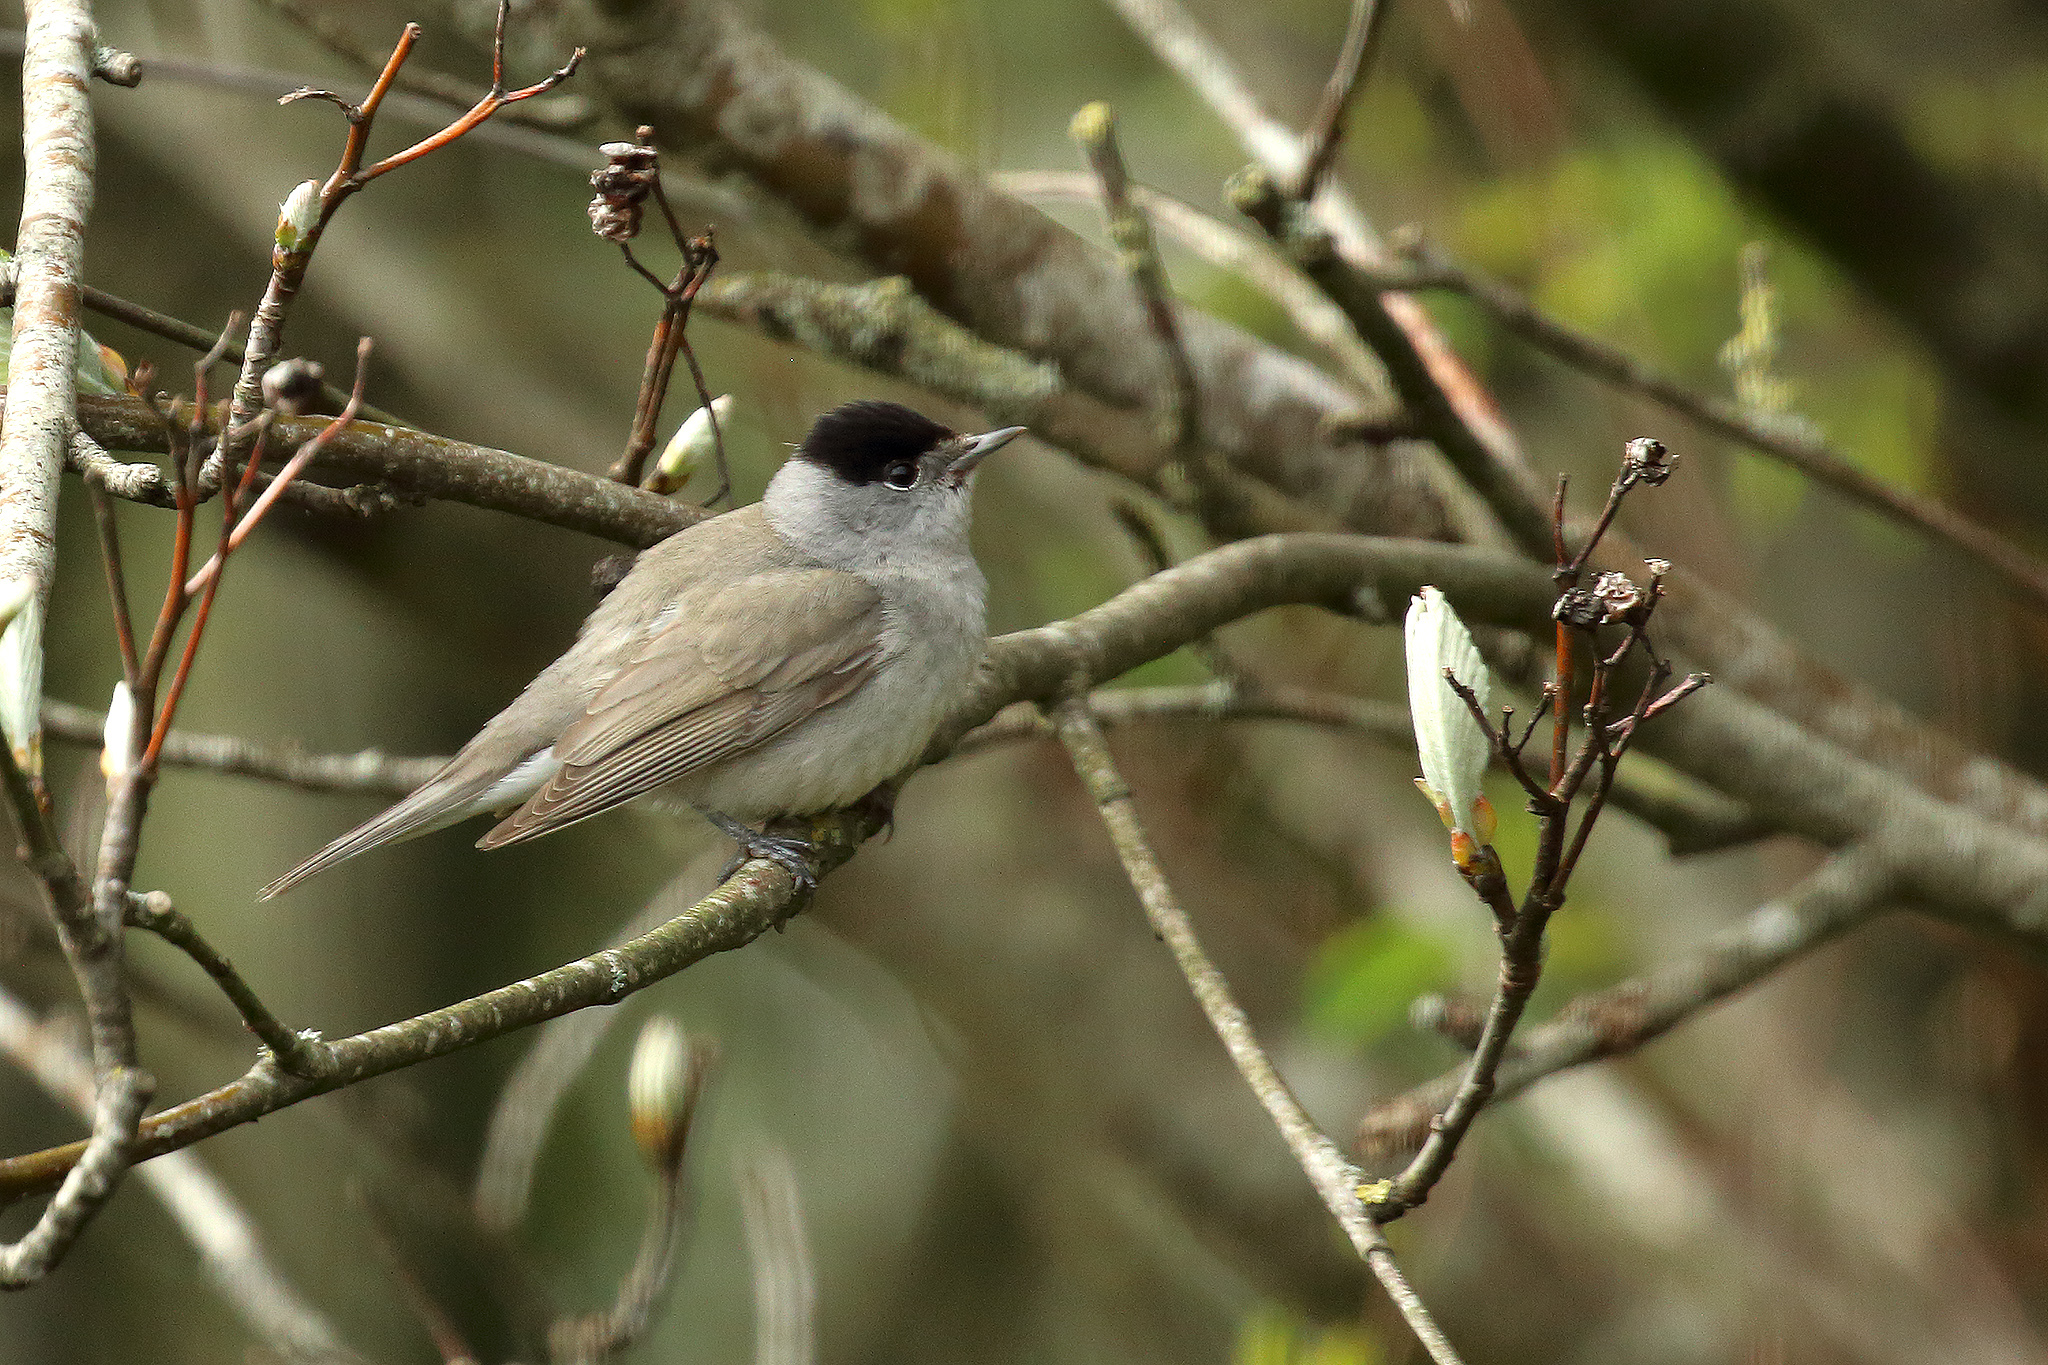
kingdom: Animalia
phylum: Chordata
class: Aves
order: Passeriformes
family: Sylviidae
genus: Sylvia
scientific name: Sylvia atricapilla
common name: Eurasian blackcap
